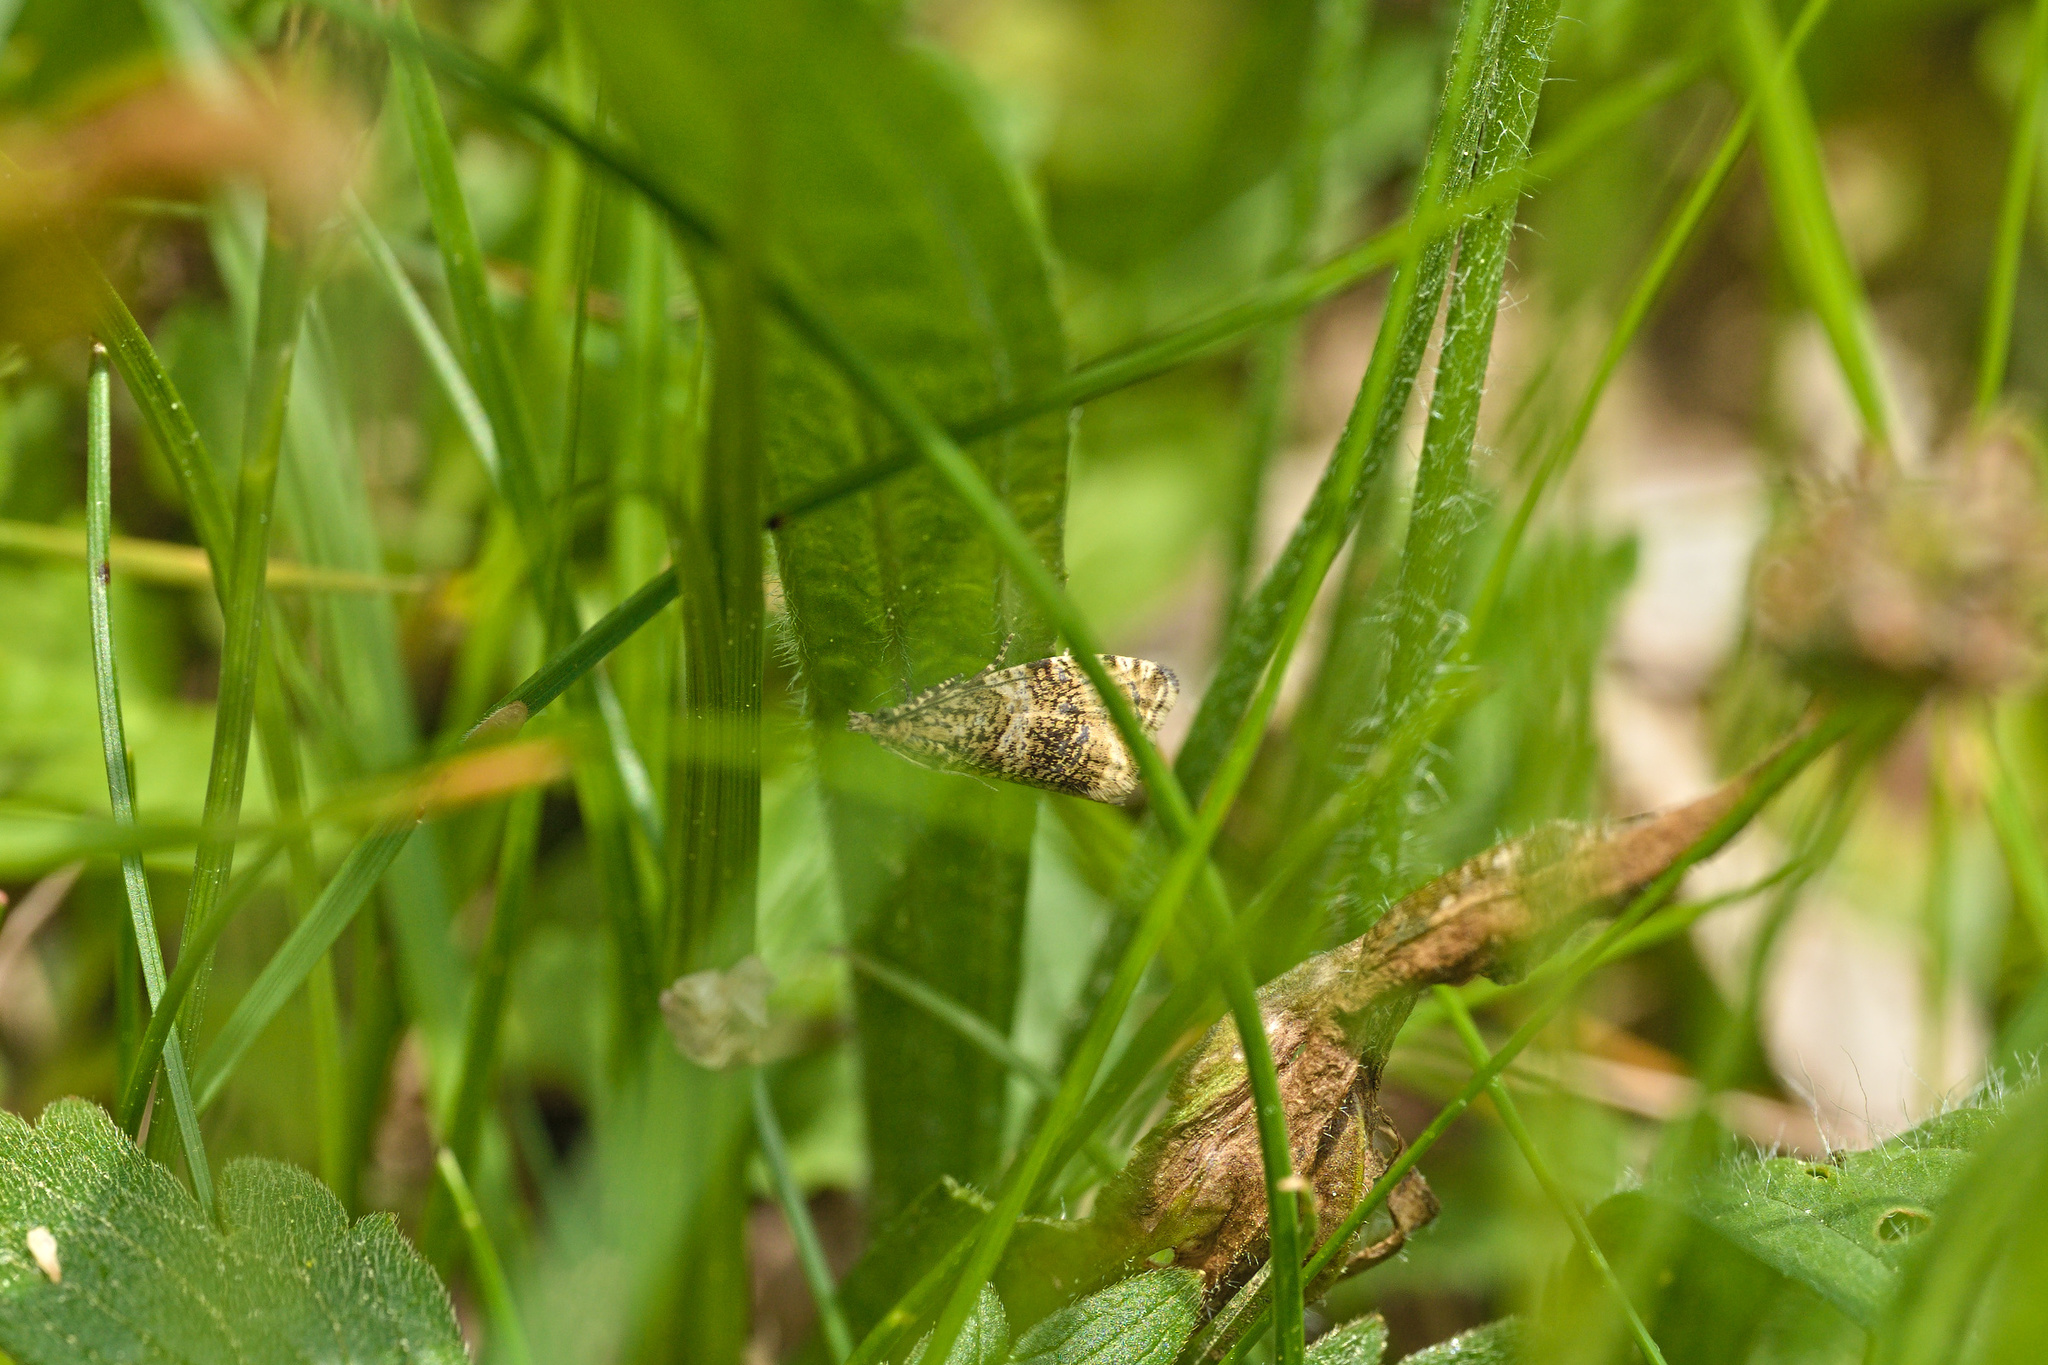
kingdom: Animalia
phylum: Arthropoda
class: Insecta
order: Lepidoptera
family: Tortricidae
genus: Syricoris
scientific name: Syricoris lacunana
